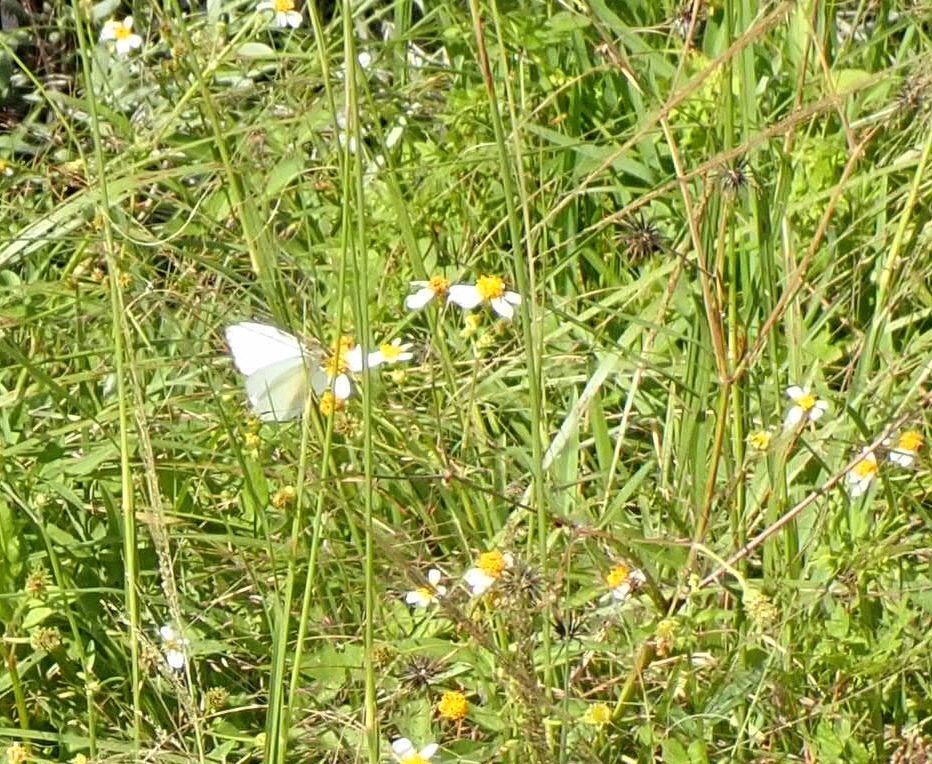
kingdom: Plantae
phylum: Tracheophyta
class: Magnoliopsida
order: Asterales
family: Asteraceae
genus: Bidens
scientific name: Bidens alba
